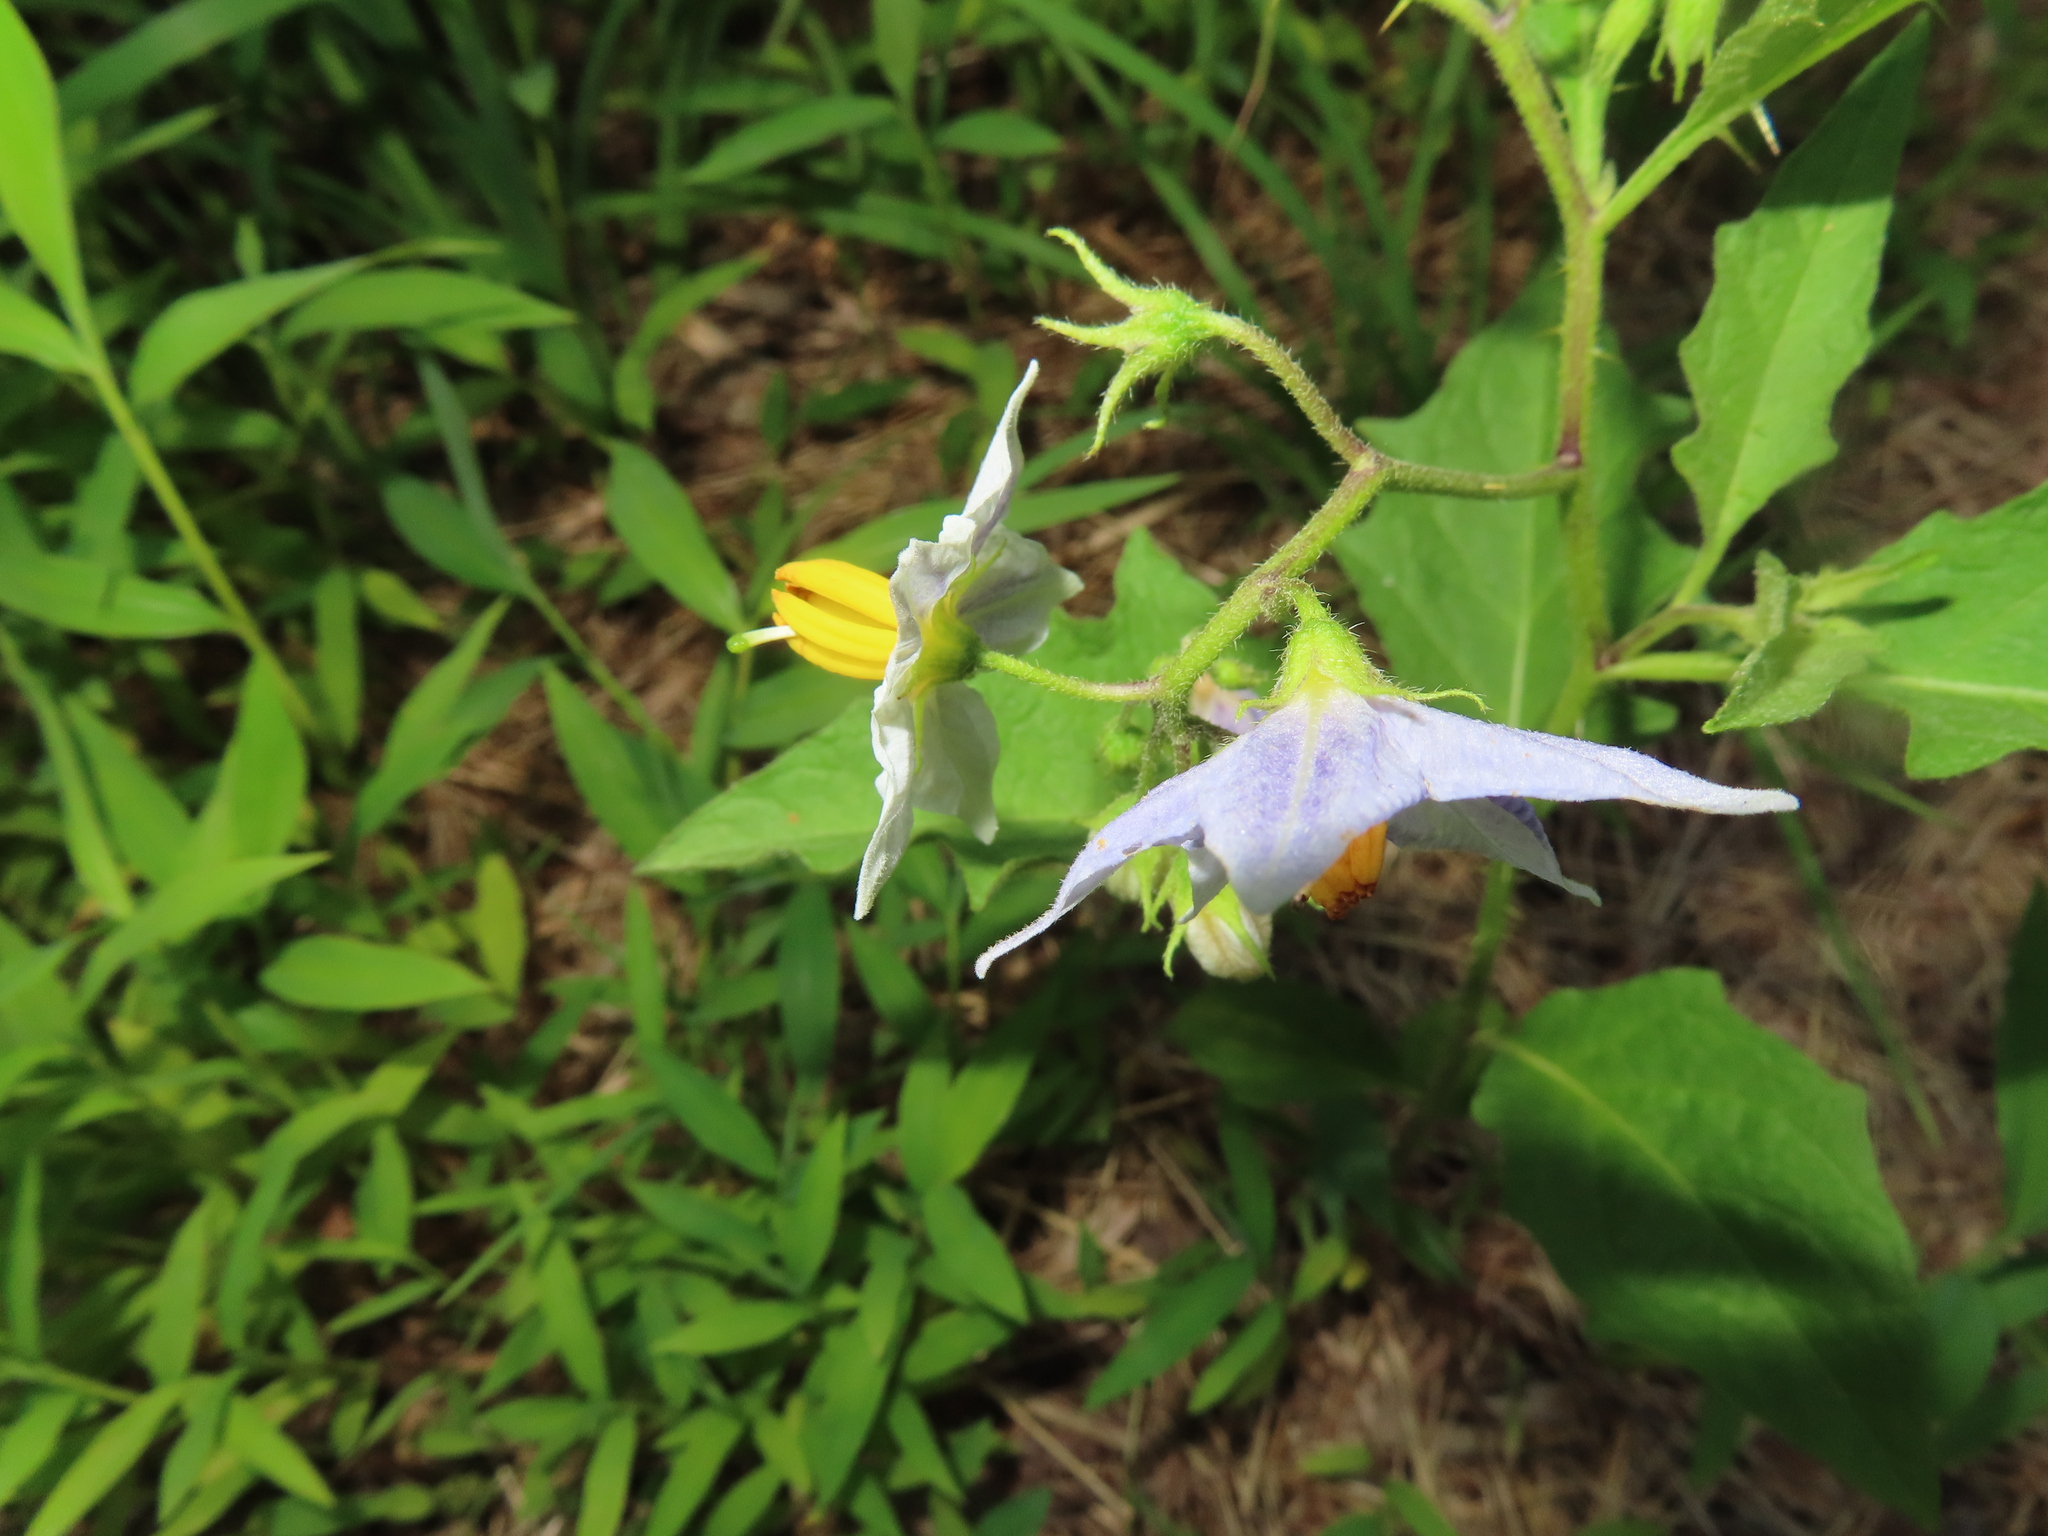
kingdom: Plantae
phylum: Tracheophyta
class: Magnoliopsida
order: Solanales
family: Solanaceae
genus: Solanum
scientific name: Solanum carolinense
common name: Horse-nettle
